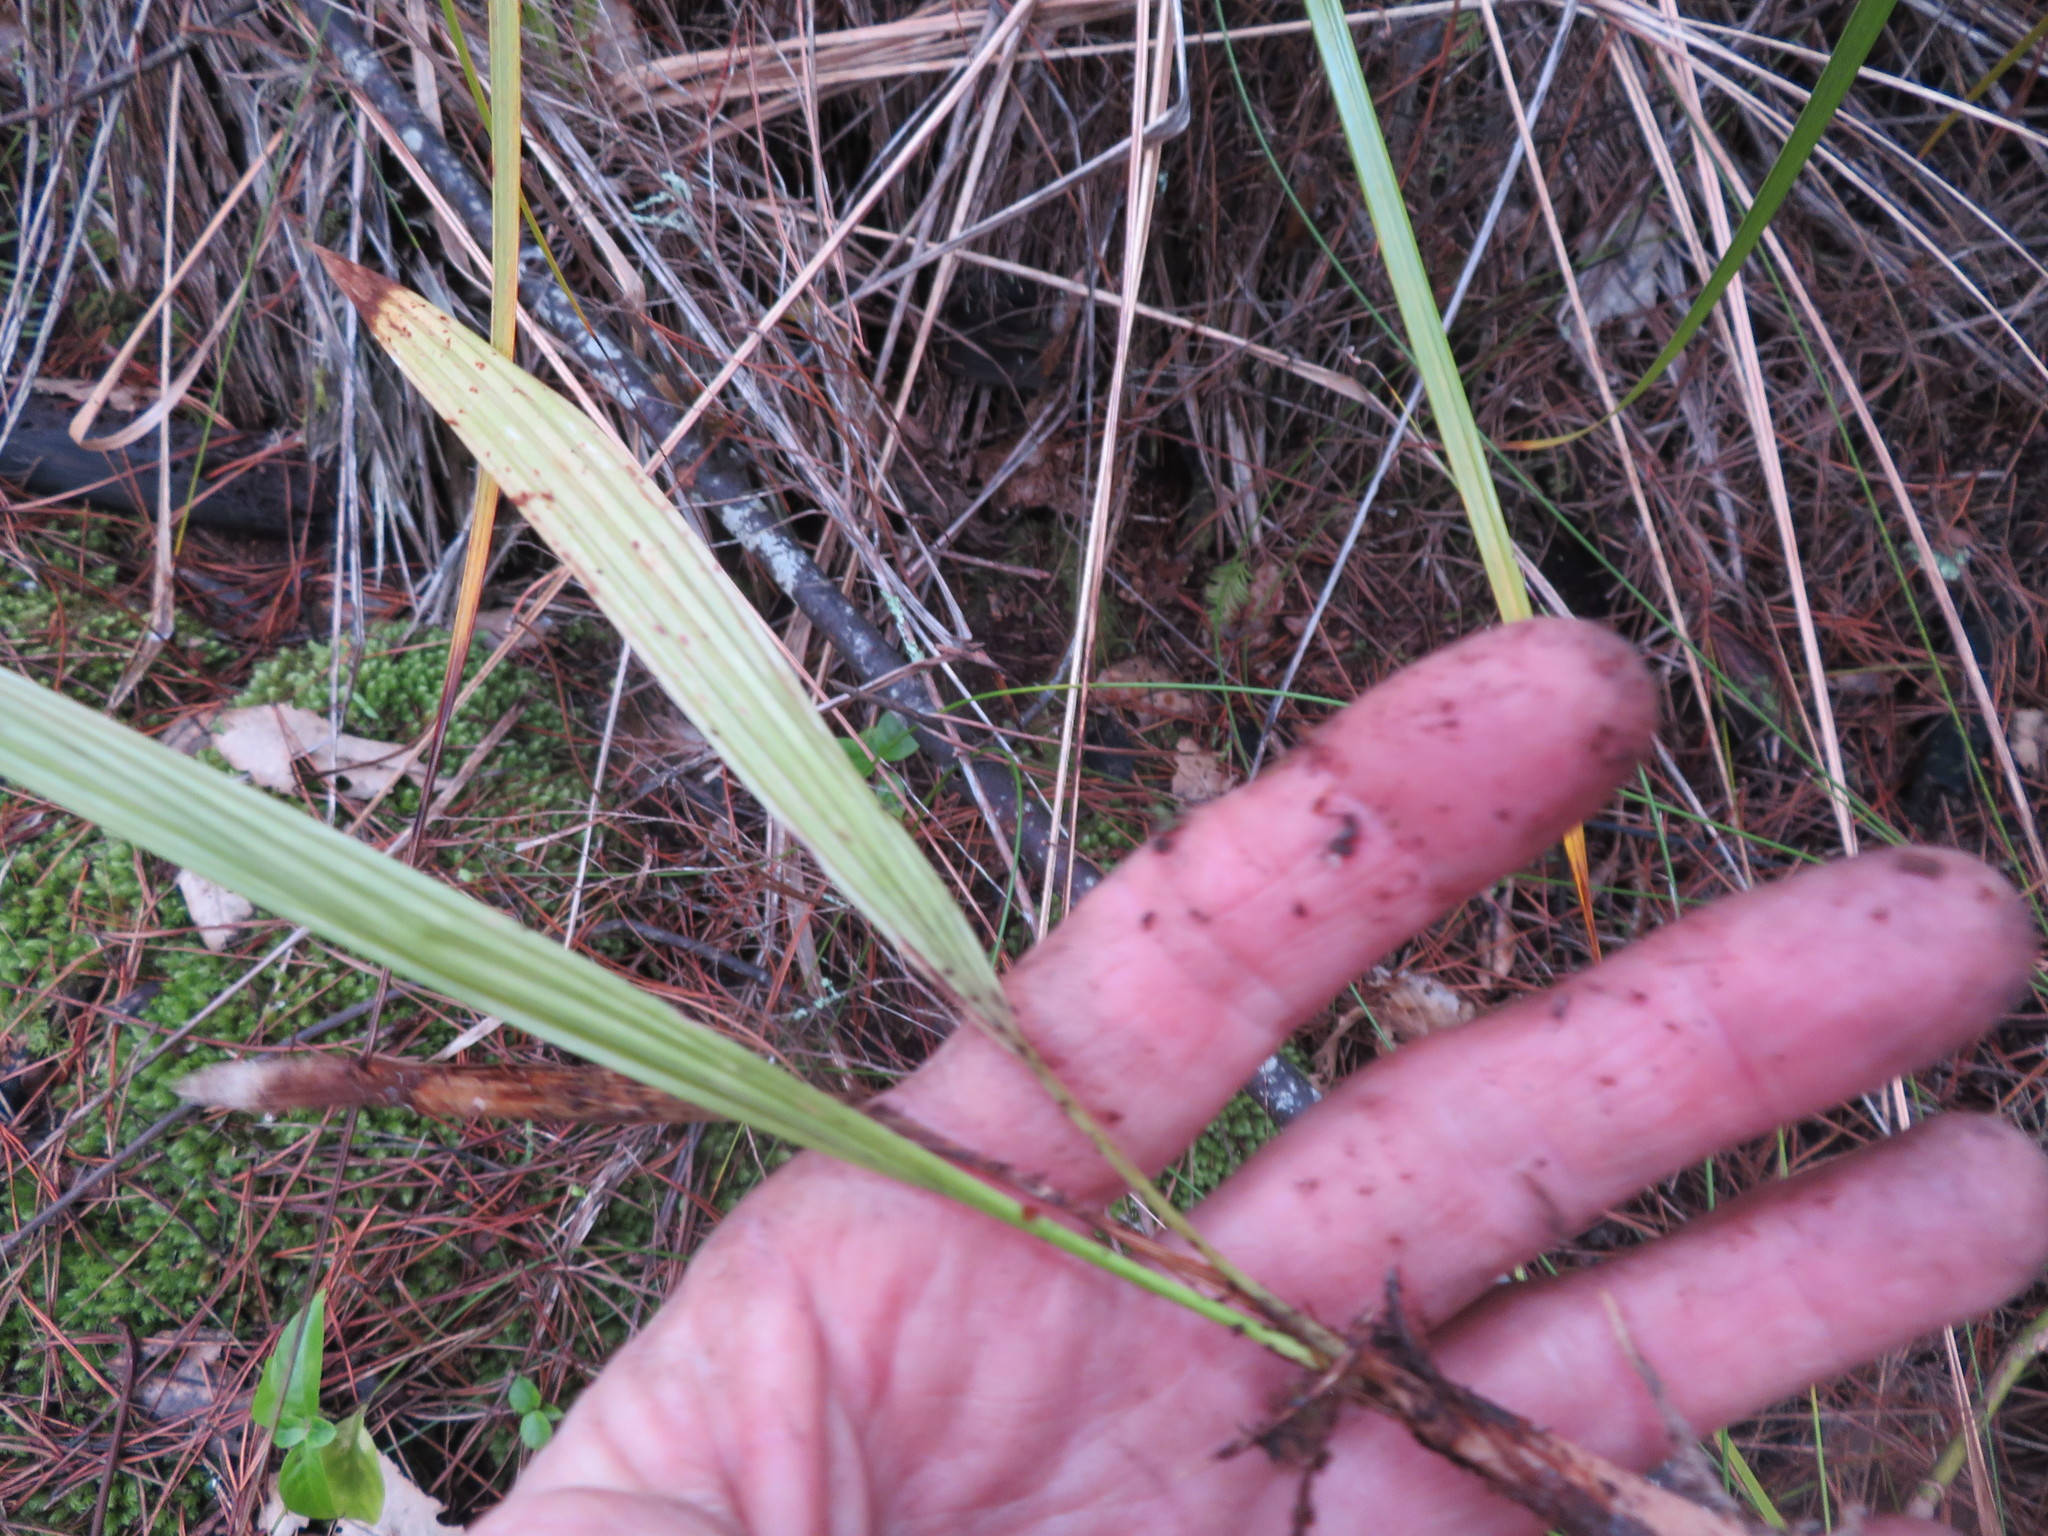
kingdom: Plantae
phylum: Tracheophyta
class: Liliopsida
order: Arecales
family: Arecaceae
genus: Phoenix
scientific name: Phoenix canariensis
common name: Canary island date palm
